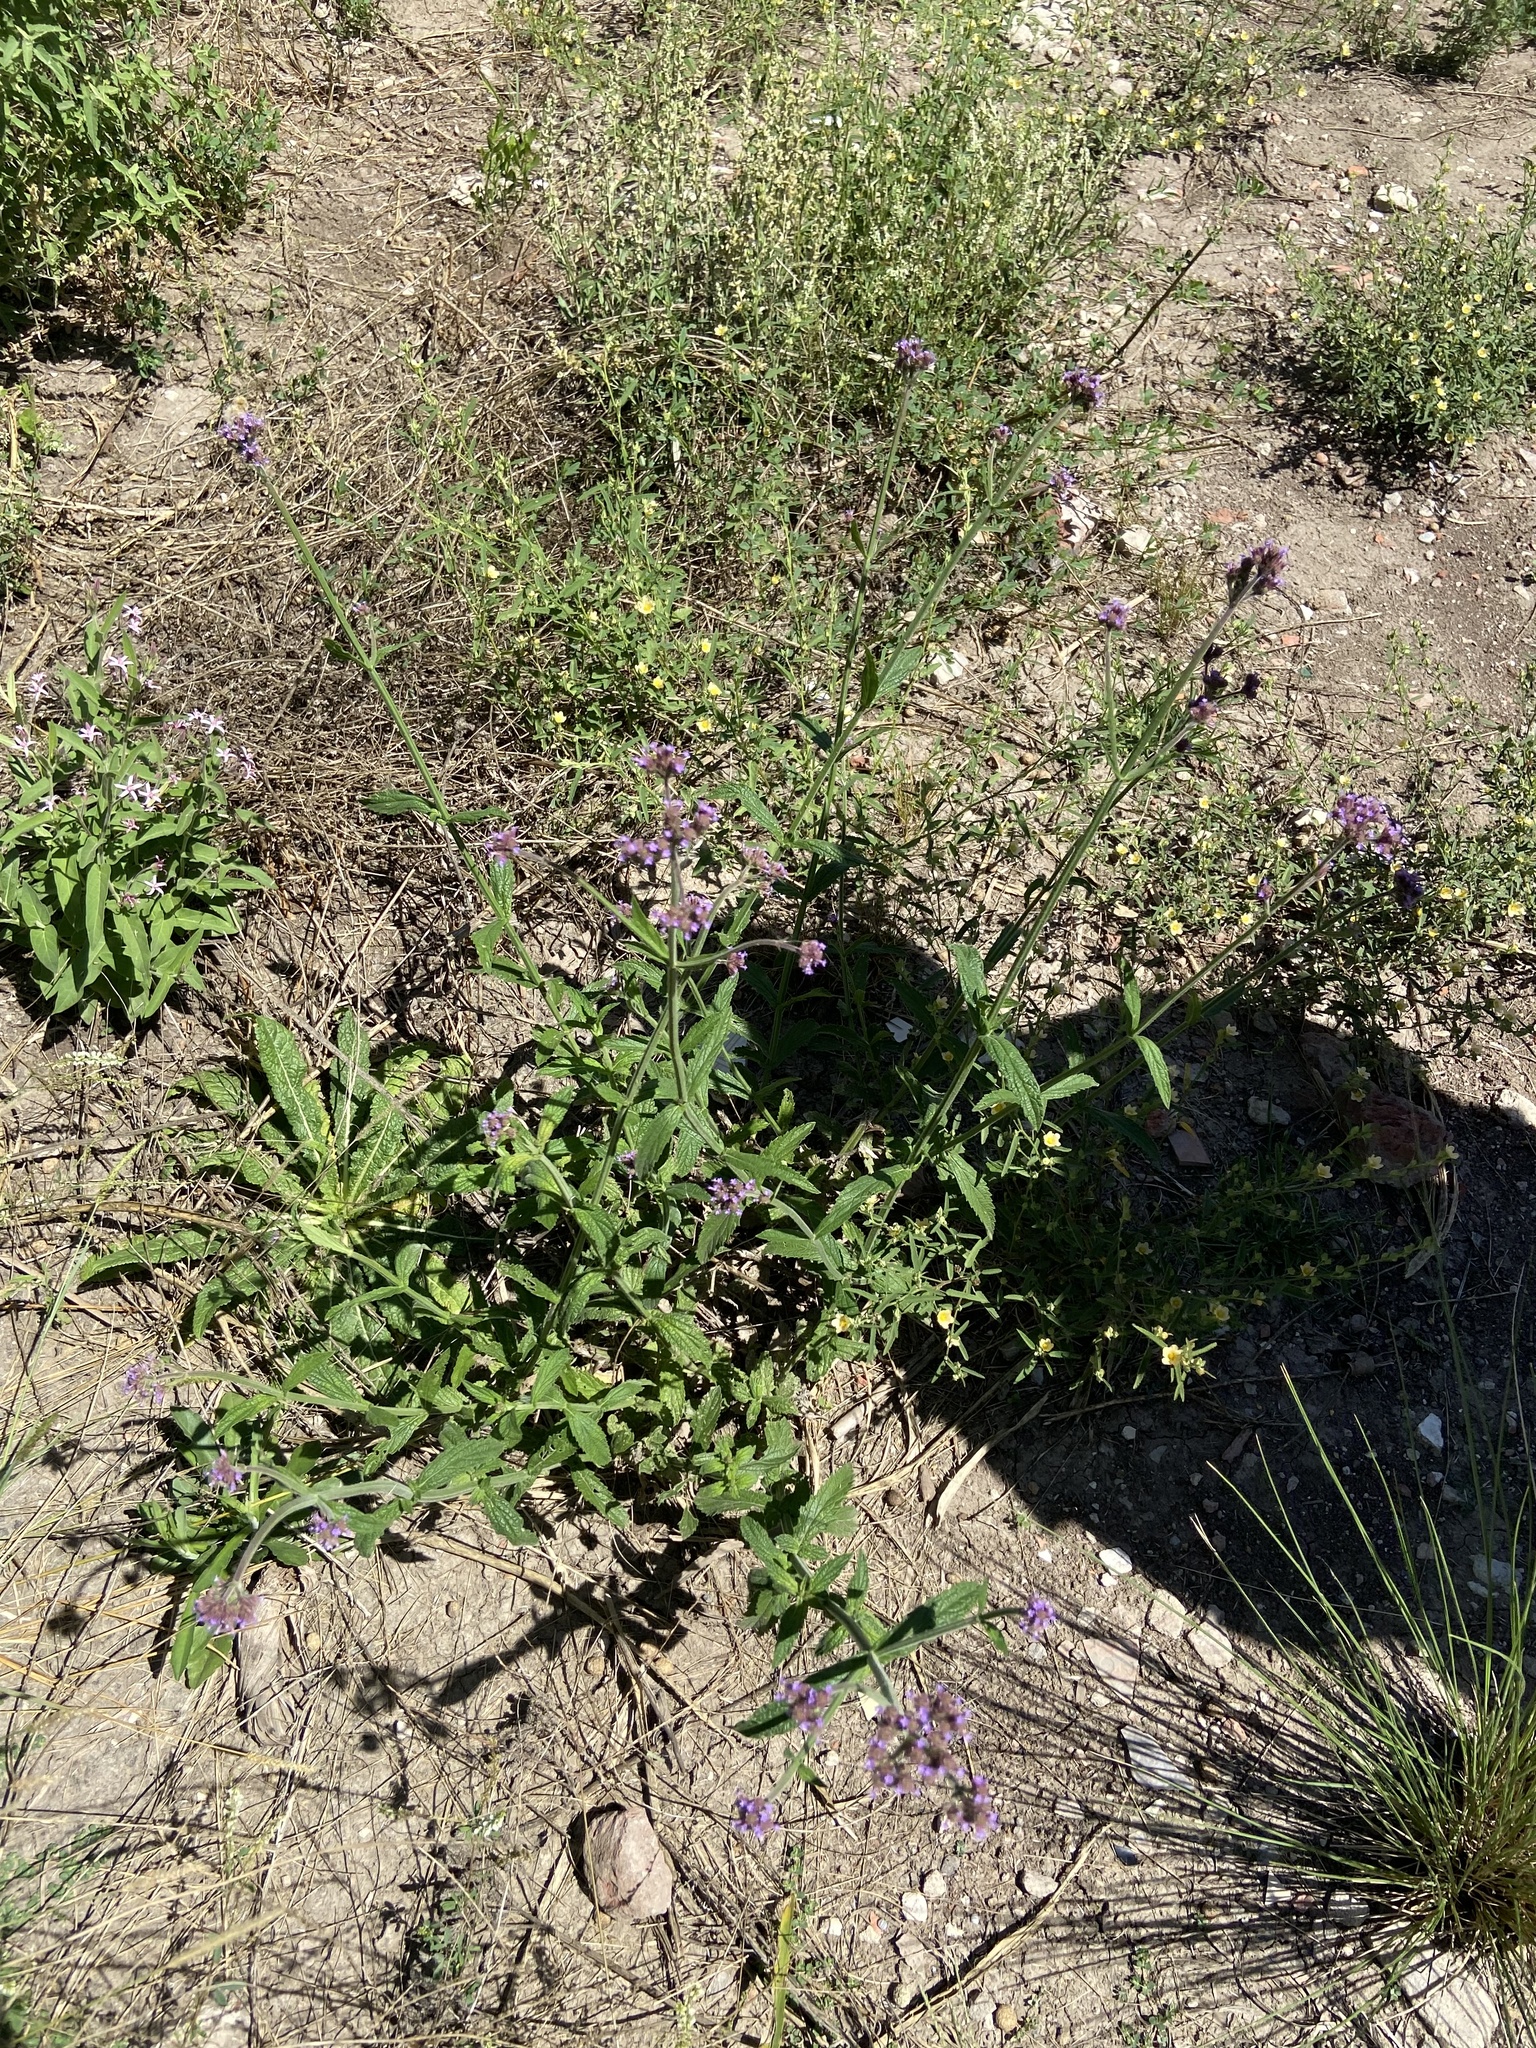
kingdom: Plantae
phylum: Tracheophyta
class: Magnoliopsida
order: Lamiales
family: Verbenaceae
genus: Verbena
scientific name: Verbena bonariensis
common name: Purpletop vervain
